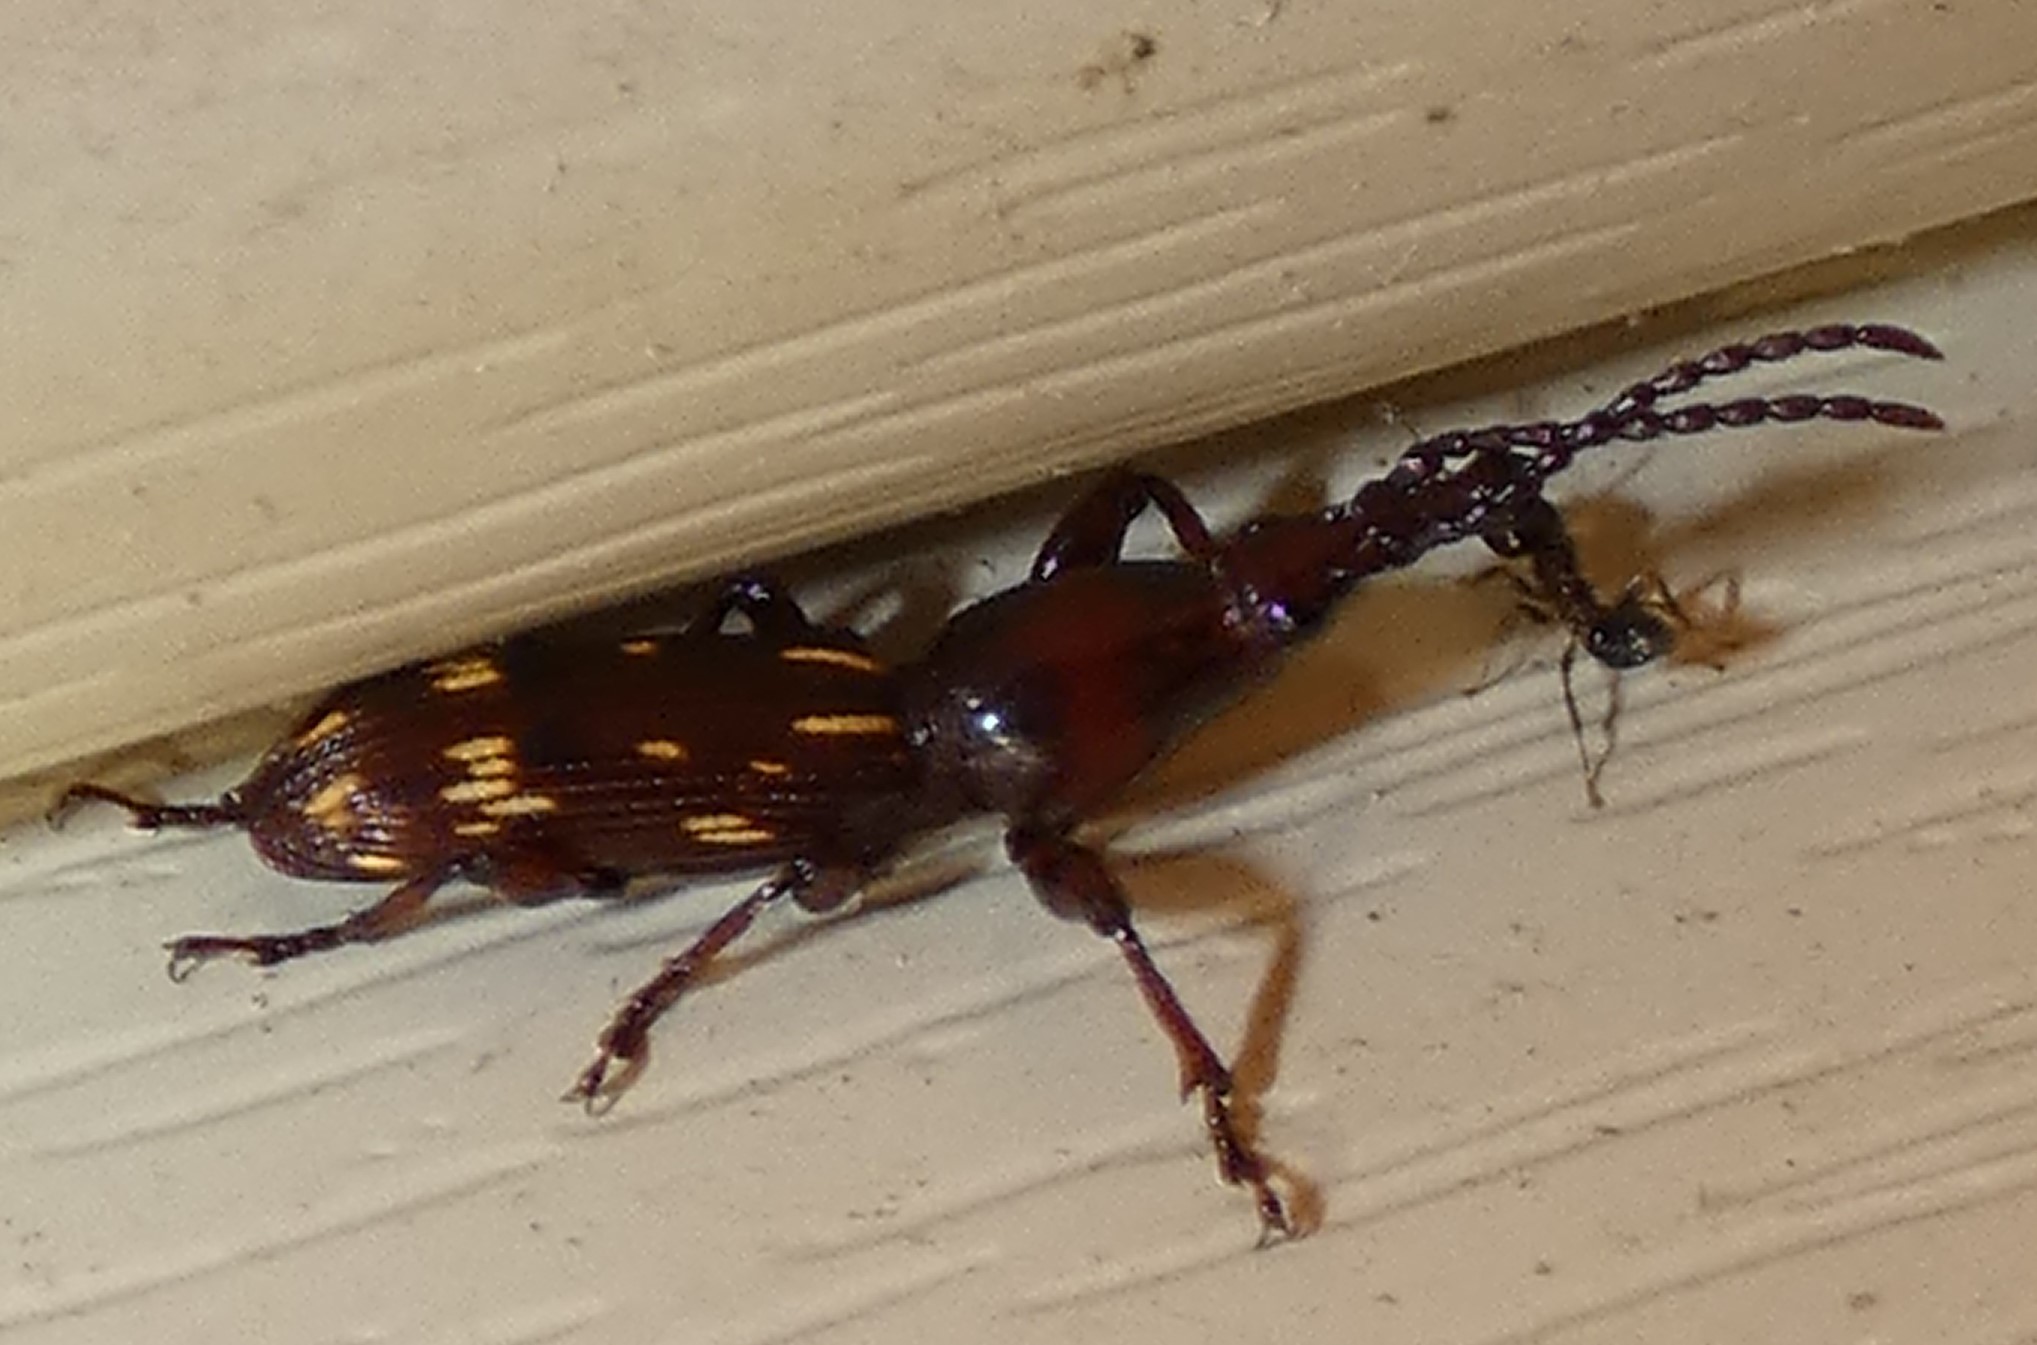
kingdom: Animalia
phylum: Arthropoda
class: Insecta
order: Coleoptera
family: Brentidae
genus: Arrenodes
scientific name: Arrenodes minutus
